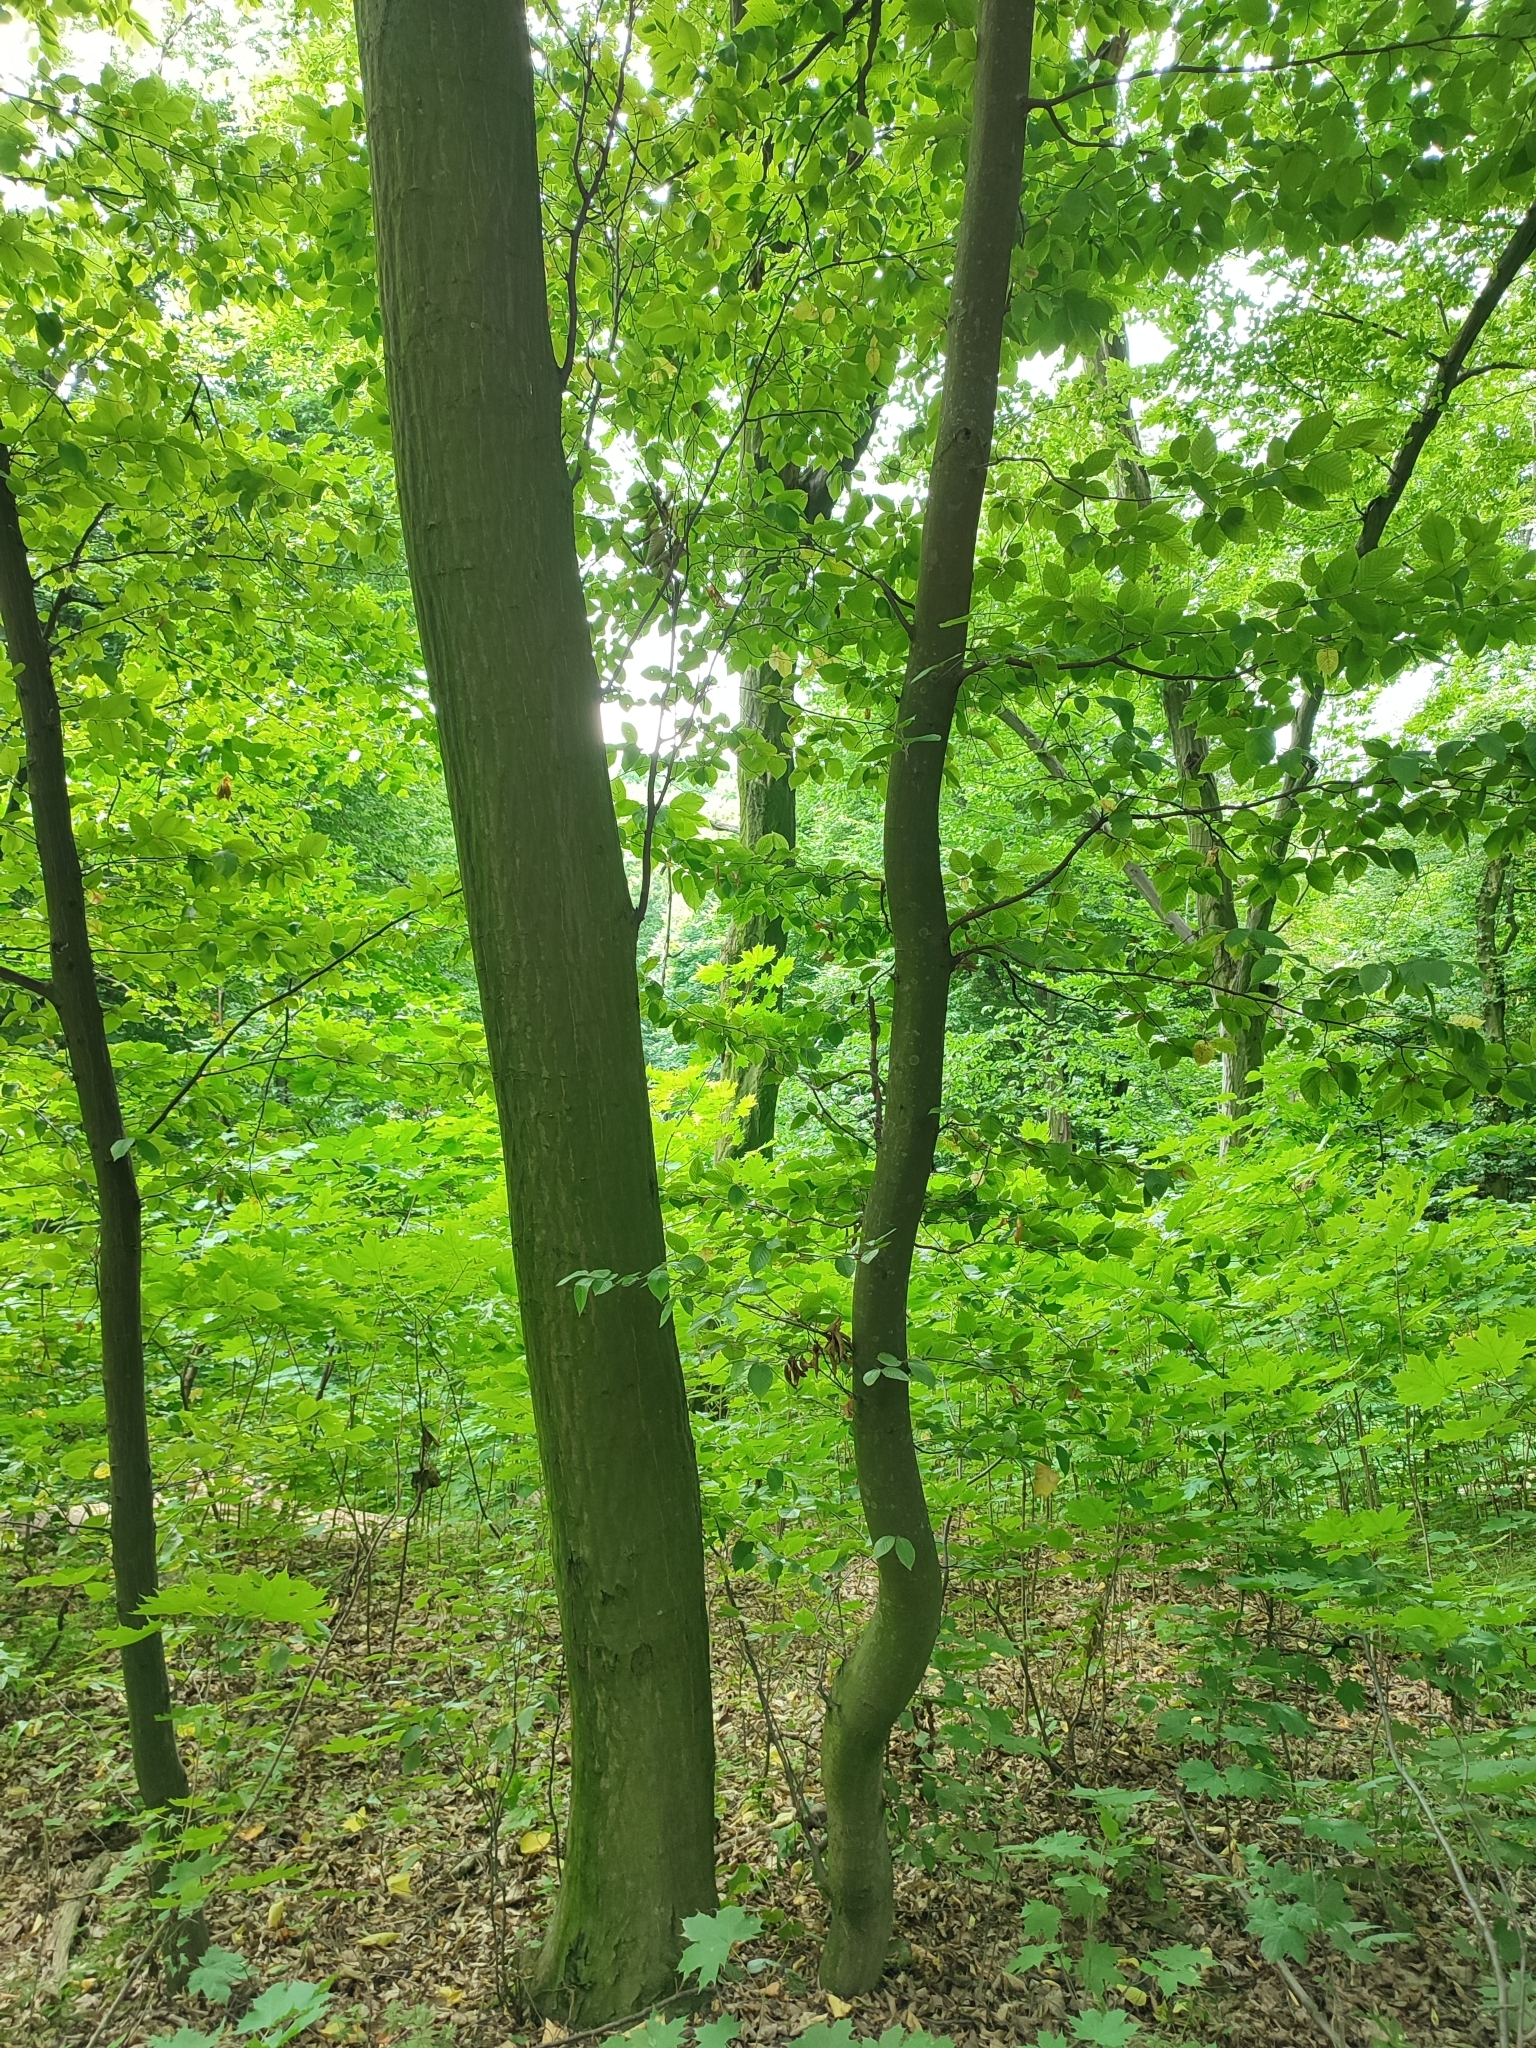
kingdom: Plantae
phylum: Tracheophyta
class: Magnoliopsida
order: Fagales
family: Betulaceae
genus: Carpinus
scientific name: Carpinus betulus
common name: Hornbeam
